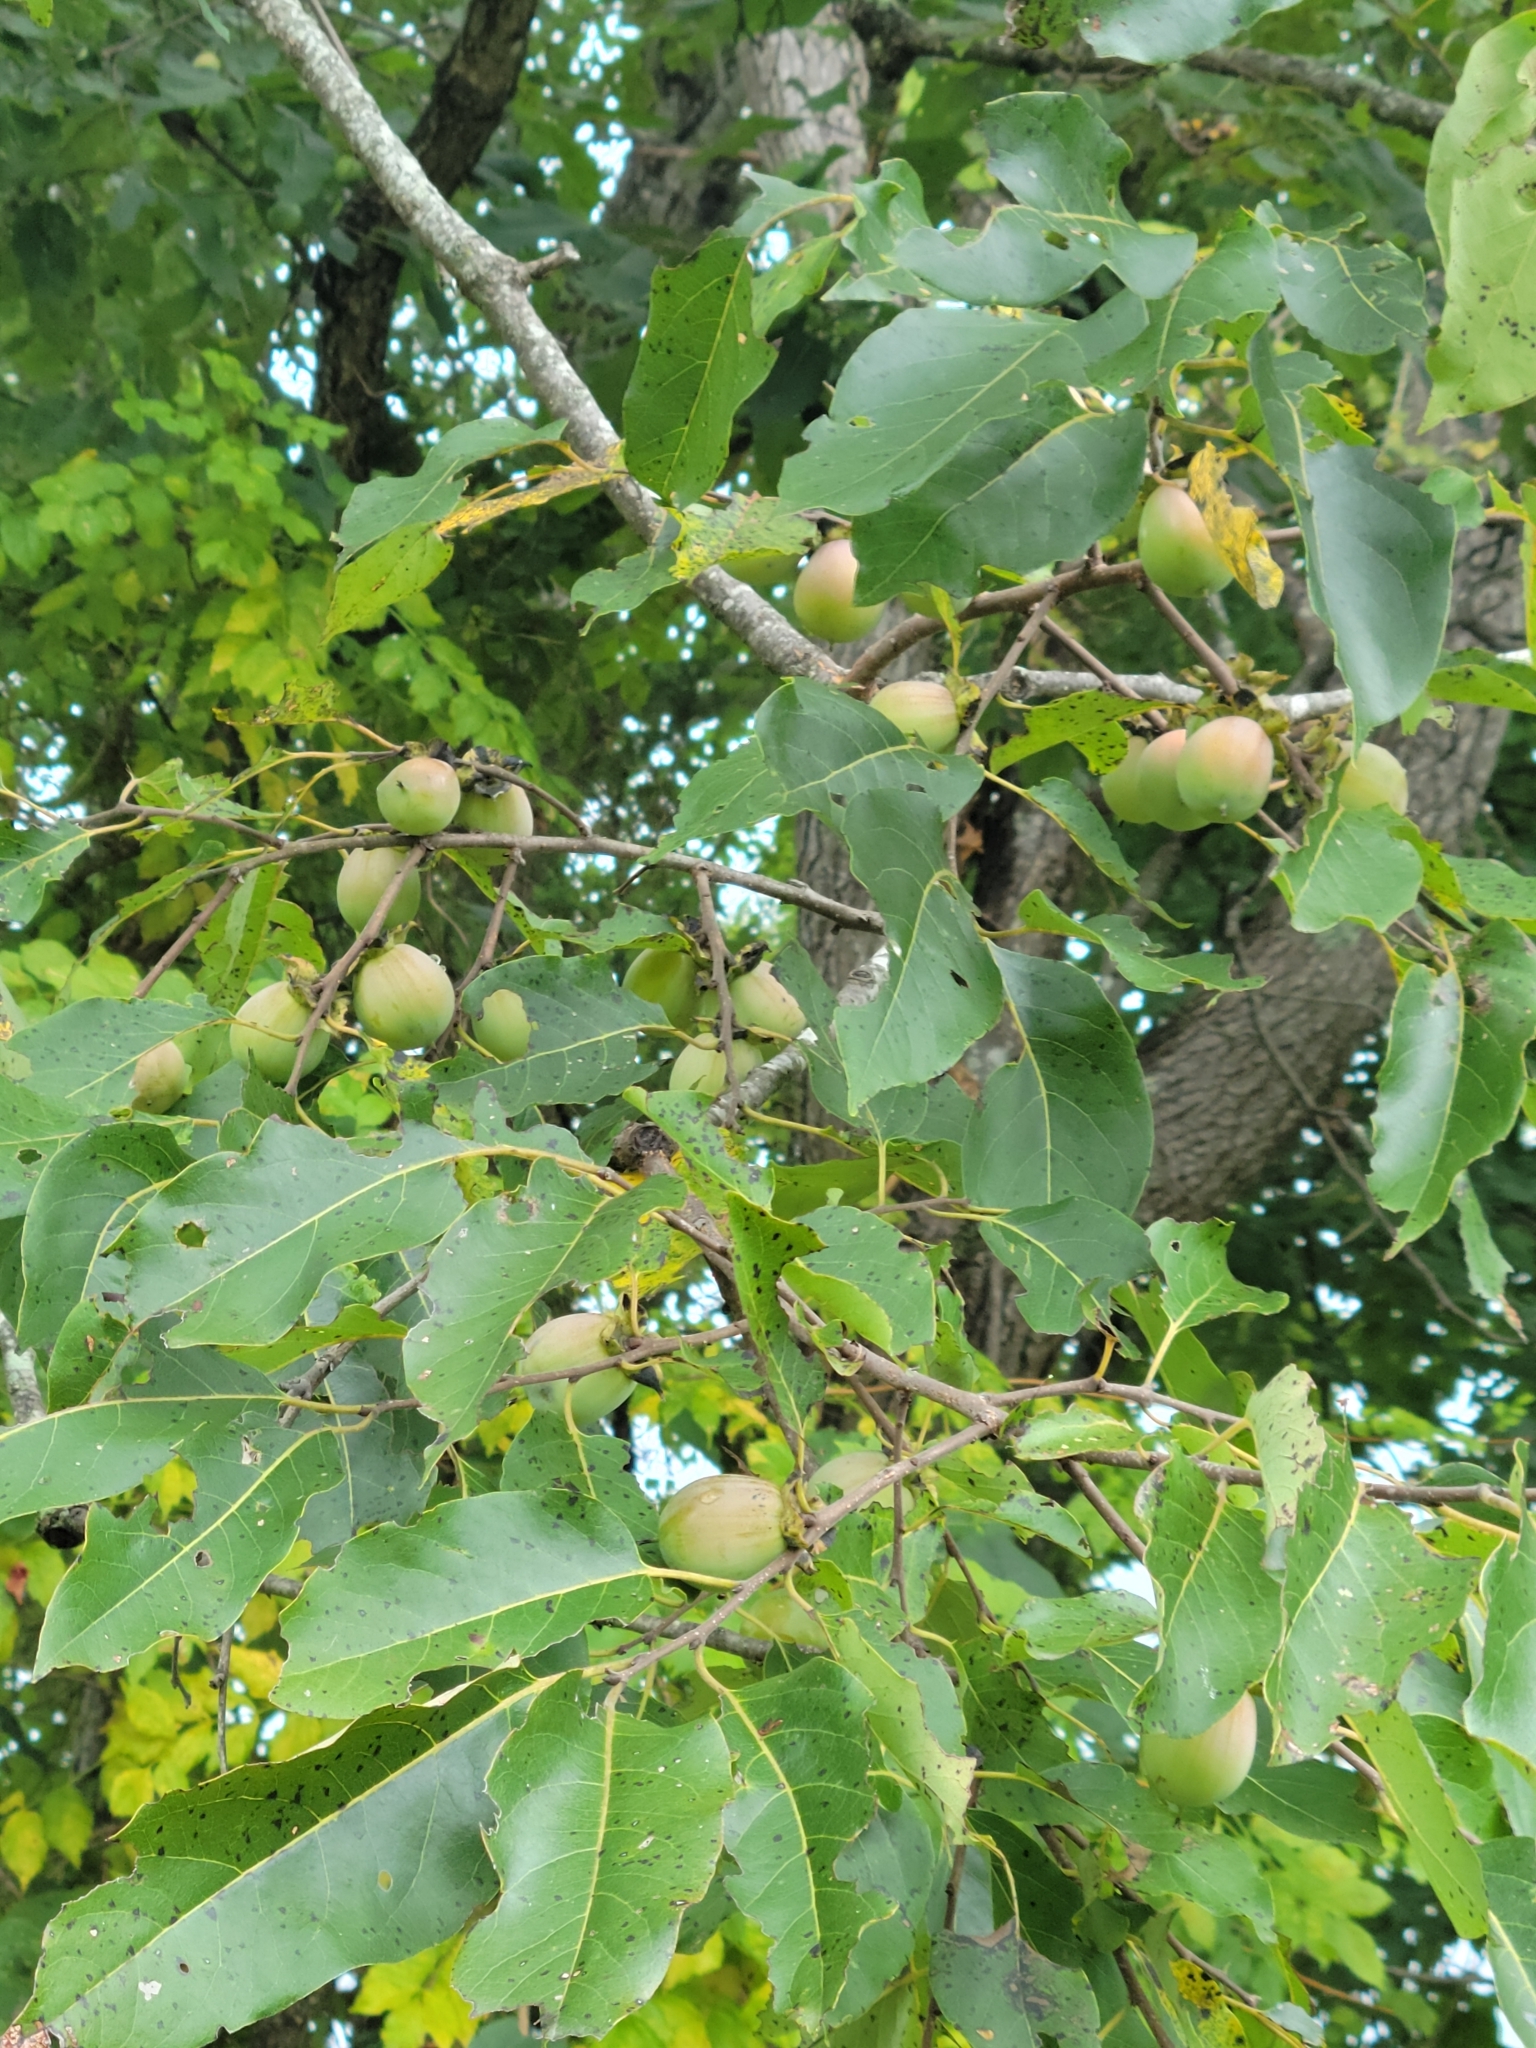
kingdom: Plantae
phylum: Tracheophyta
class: Magnoliopsida
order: Ericales
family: Ebenaceae
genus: Diospyros
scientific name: Diospyros virginiana
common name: Persimmon
